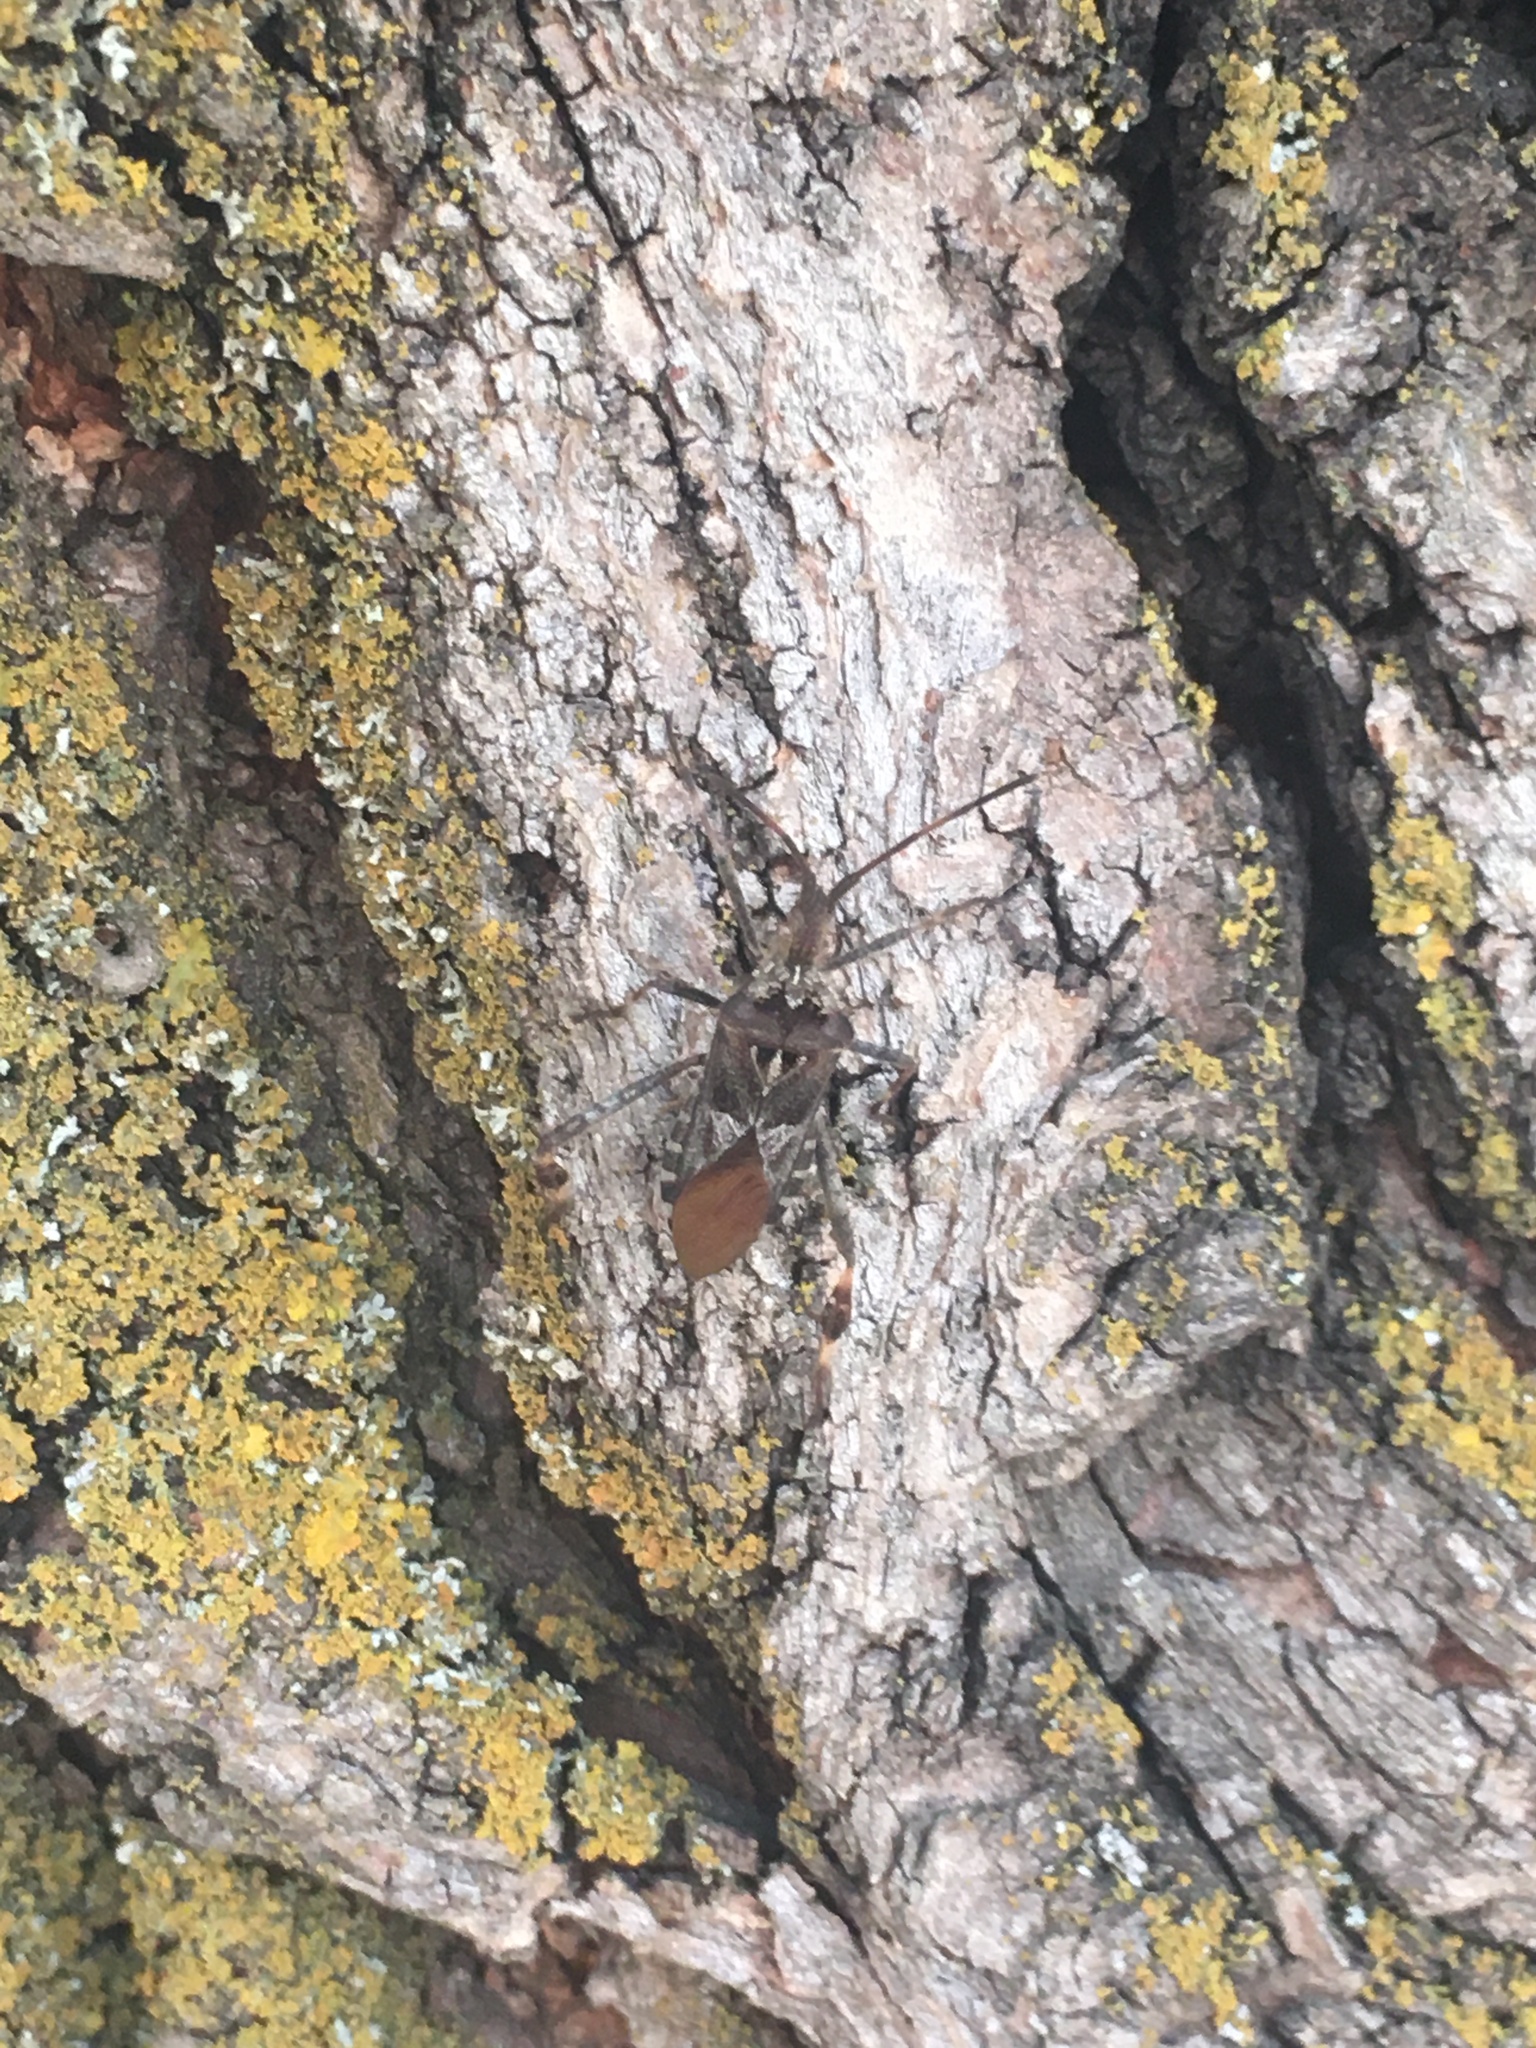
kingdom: Animalia
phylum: Arthropoda
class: Insecta
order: Hemiptera
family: Coreidae
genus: Leptoglossus
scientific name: Leptoglossus occidentalis
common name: Western conifer-seed bug
